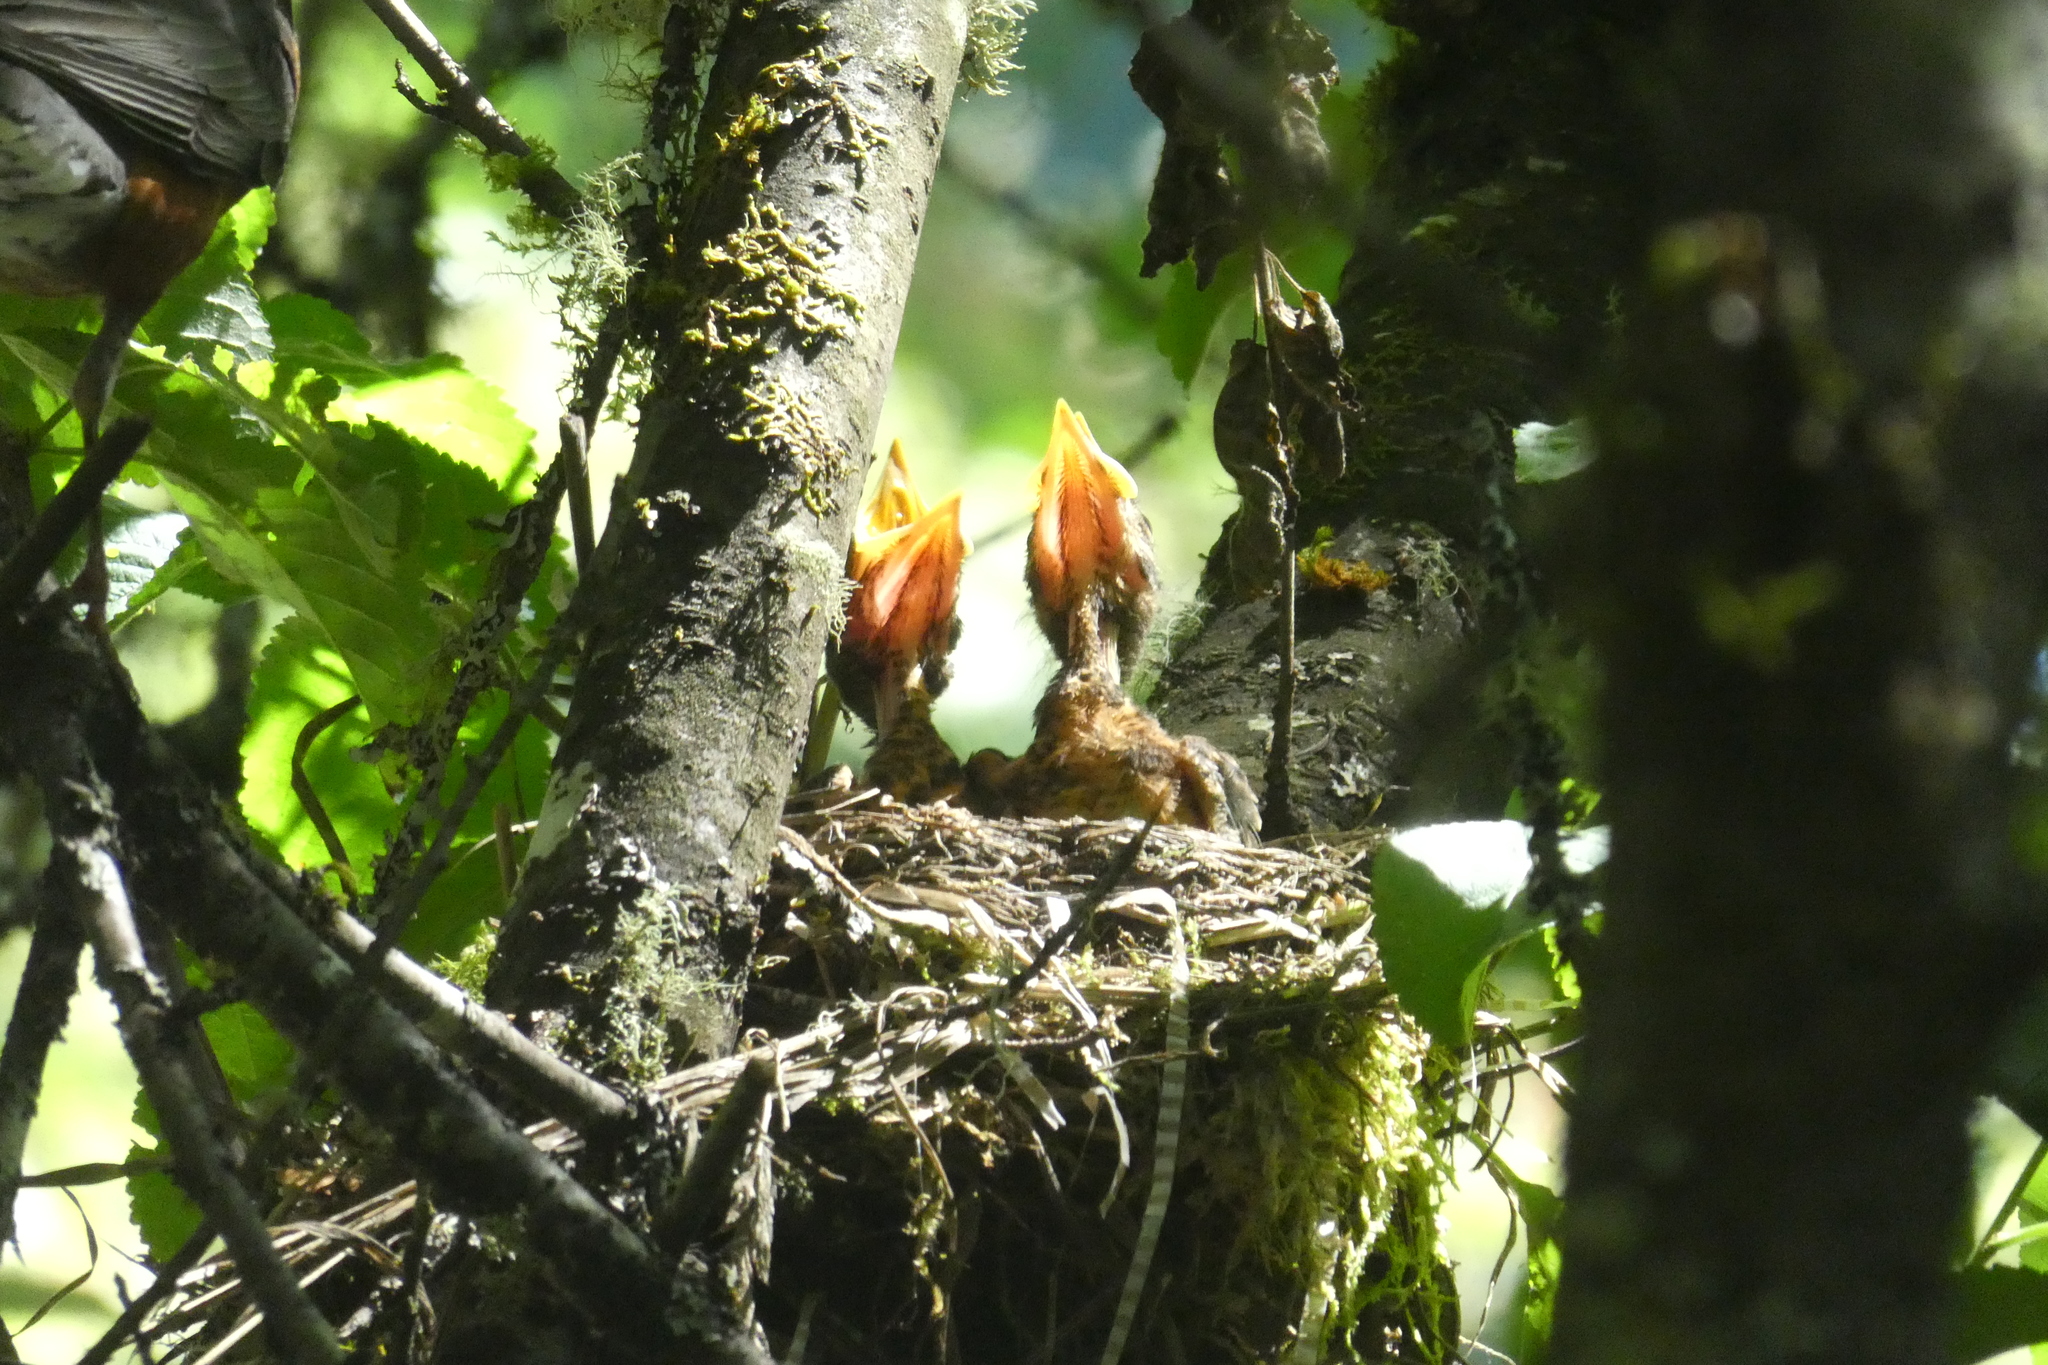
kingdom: Animalia
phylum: Chordata
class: Aves
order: Passeriformes
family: Turdidae
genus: Turdus
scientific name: Turdus migratorius
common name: American robin
